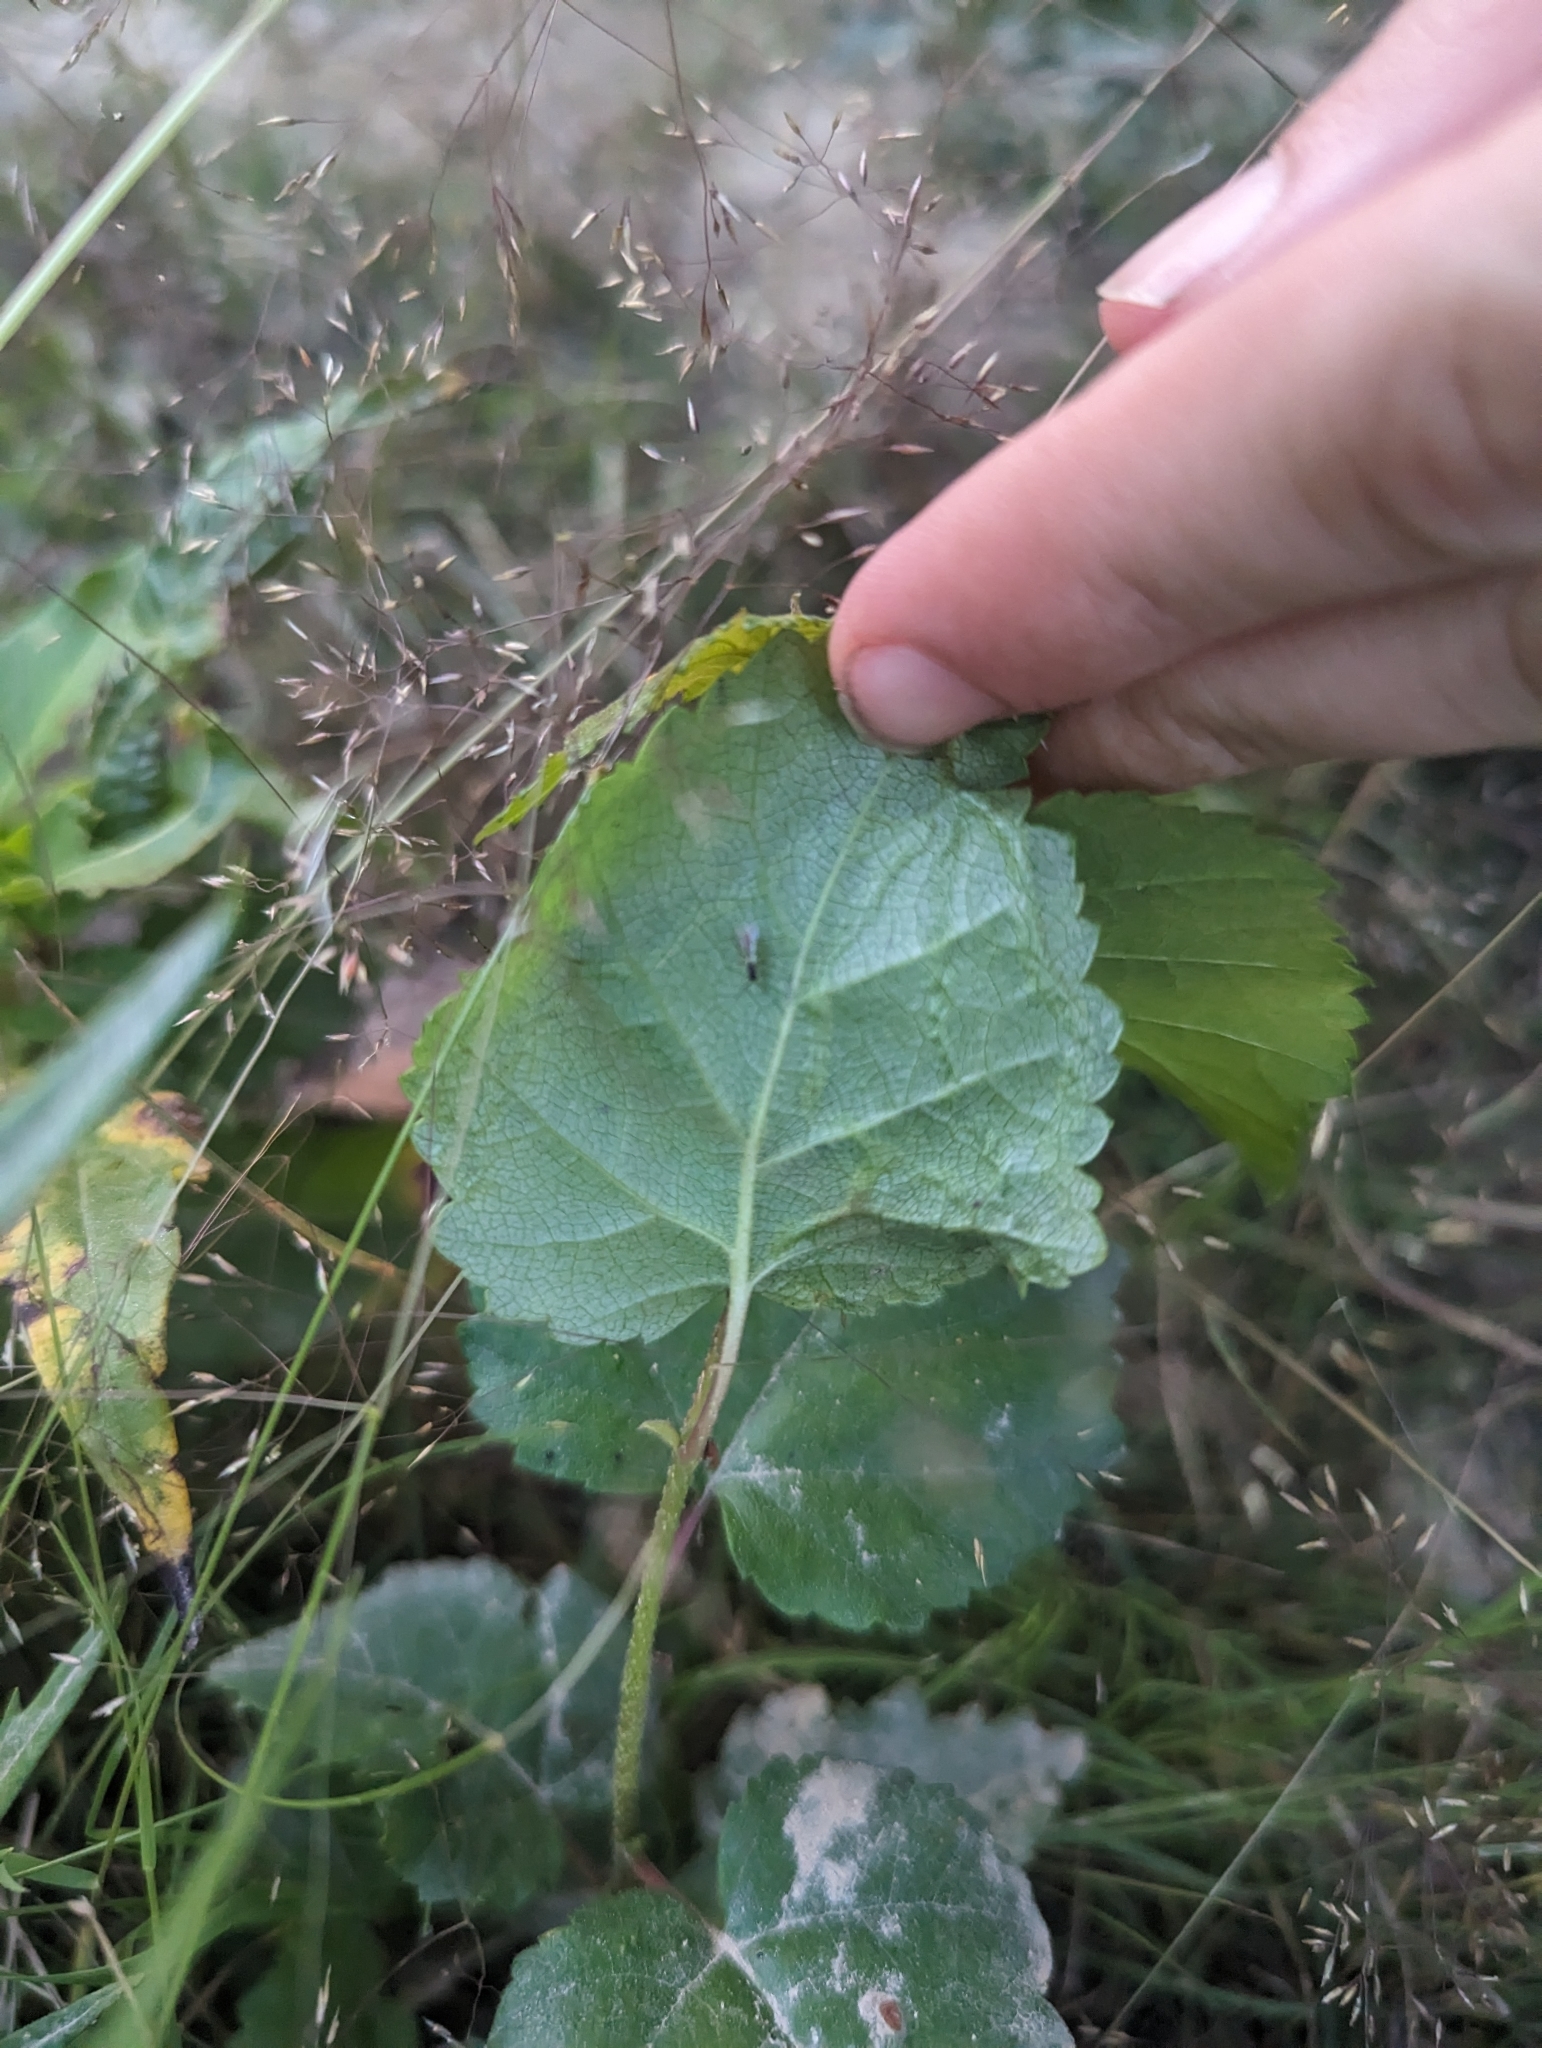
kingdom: Animalia
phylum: Arthropoda
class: Insecta
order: Diptera
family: Agromyzidae
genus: Agromyza
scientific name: Agromyza alnibetulae
